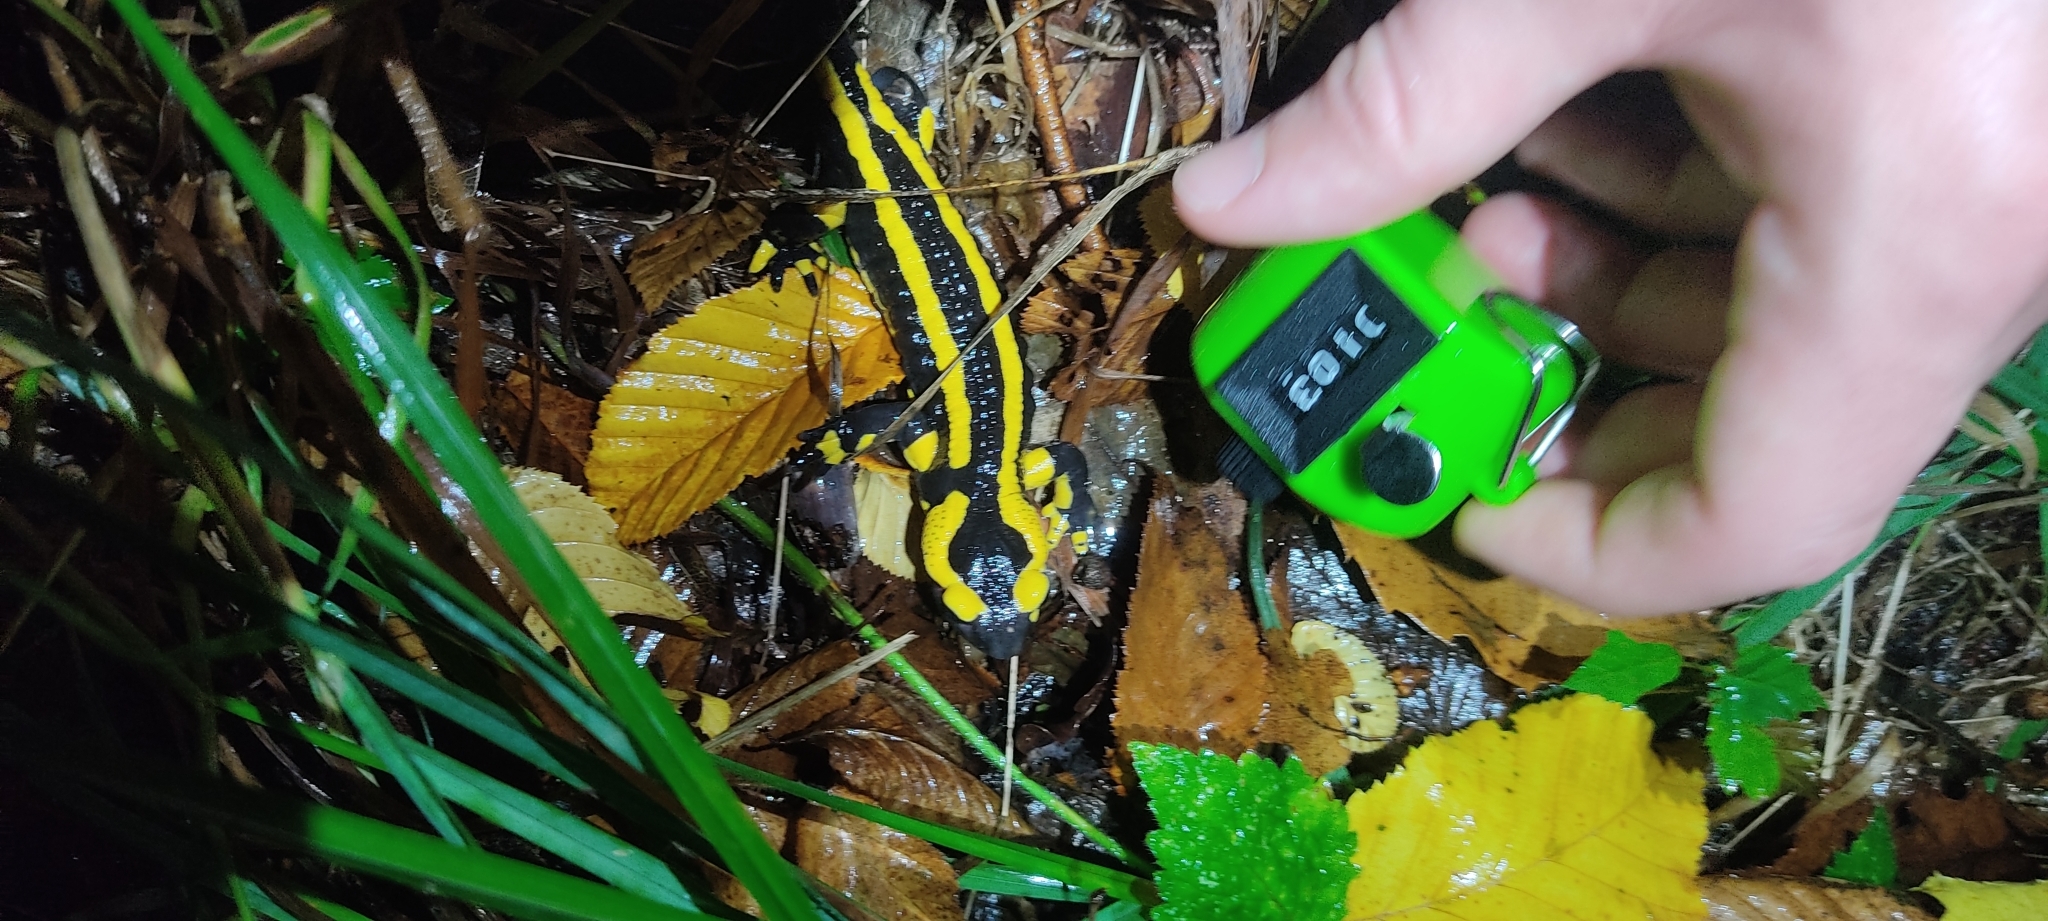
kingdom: Animalia
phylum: Chordata
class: Amphibia
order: Caudata
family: Salamandridae
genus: Salamandra
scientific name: Salamandra salamandra
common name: Fire salamander
